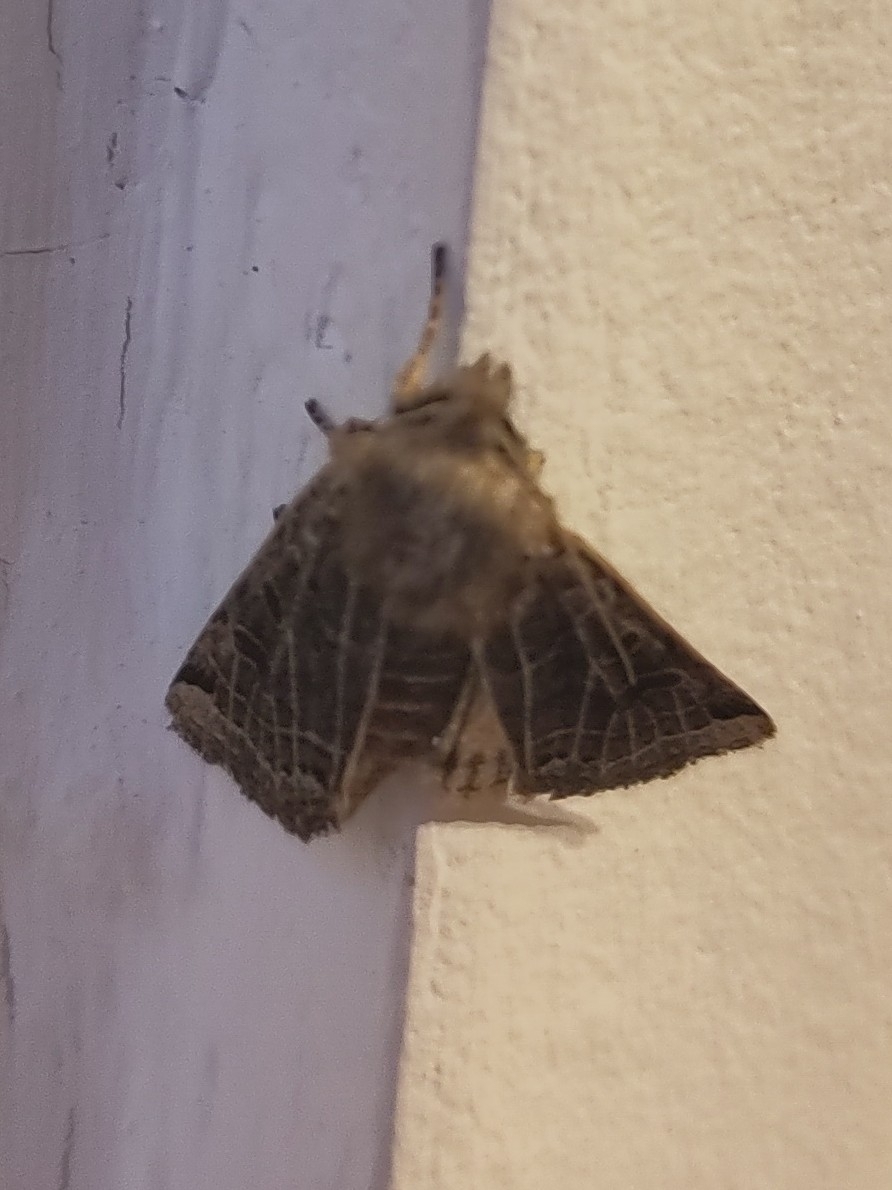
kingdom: Animalia
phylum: Arthropoda
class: Insecta
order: Lepidoptera
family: Noctuidae
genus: Agrochola
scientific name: Agrochola lunosa
